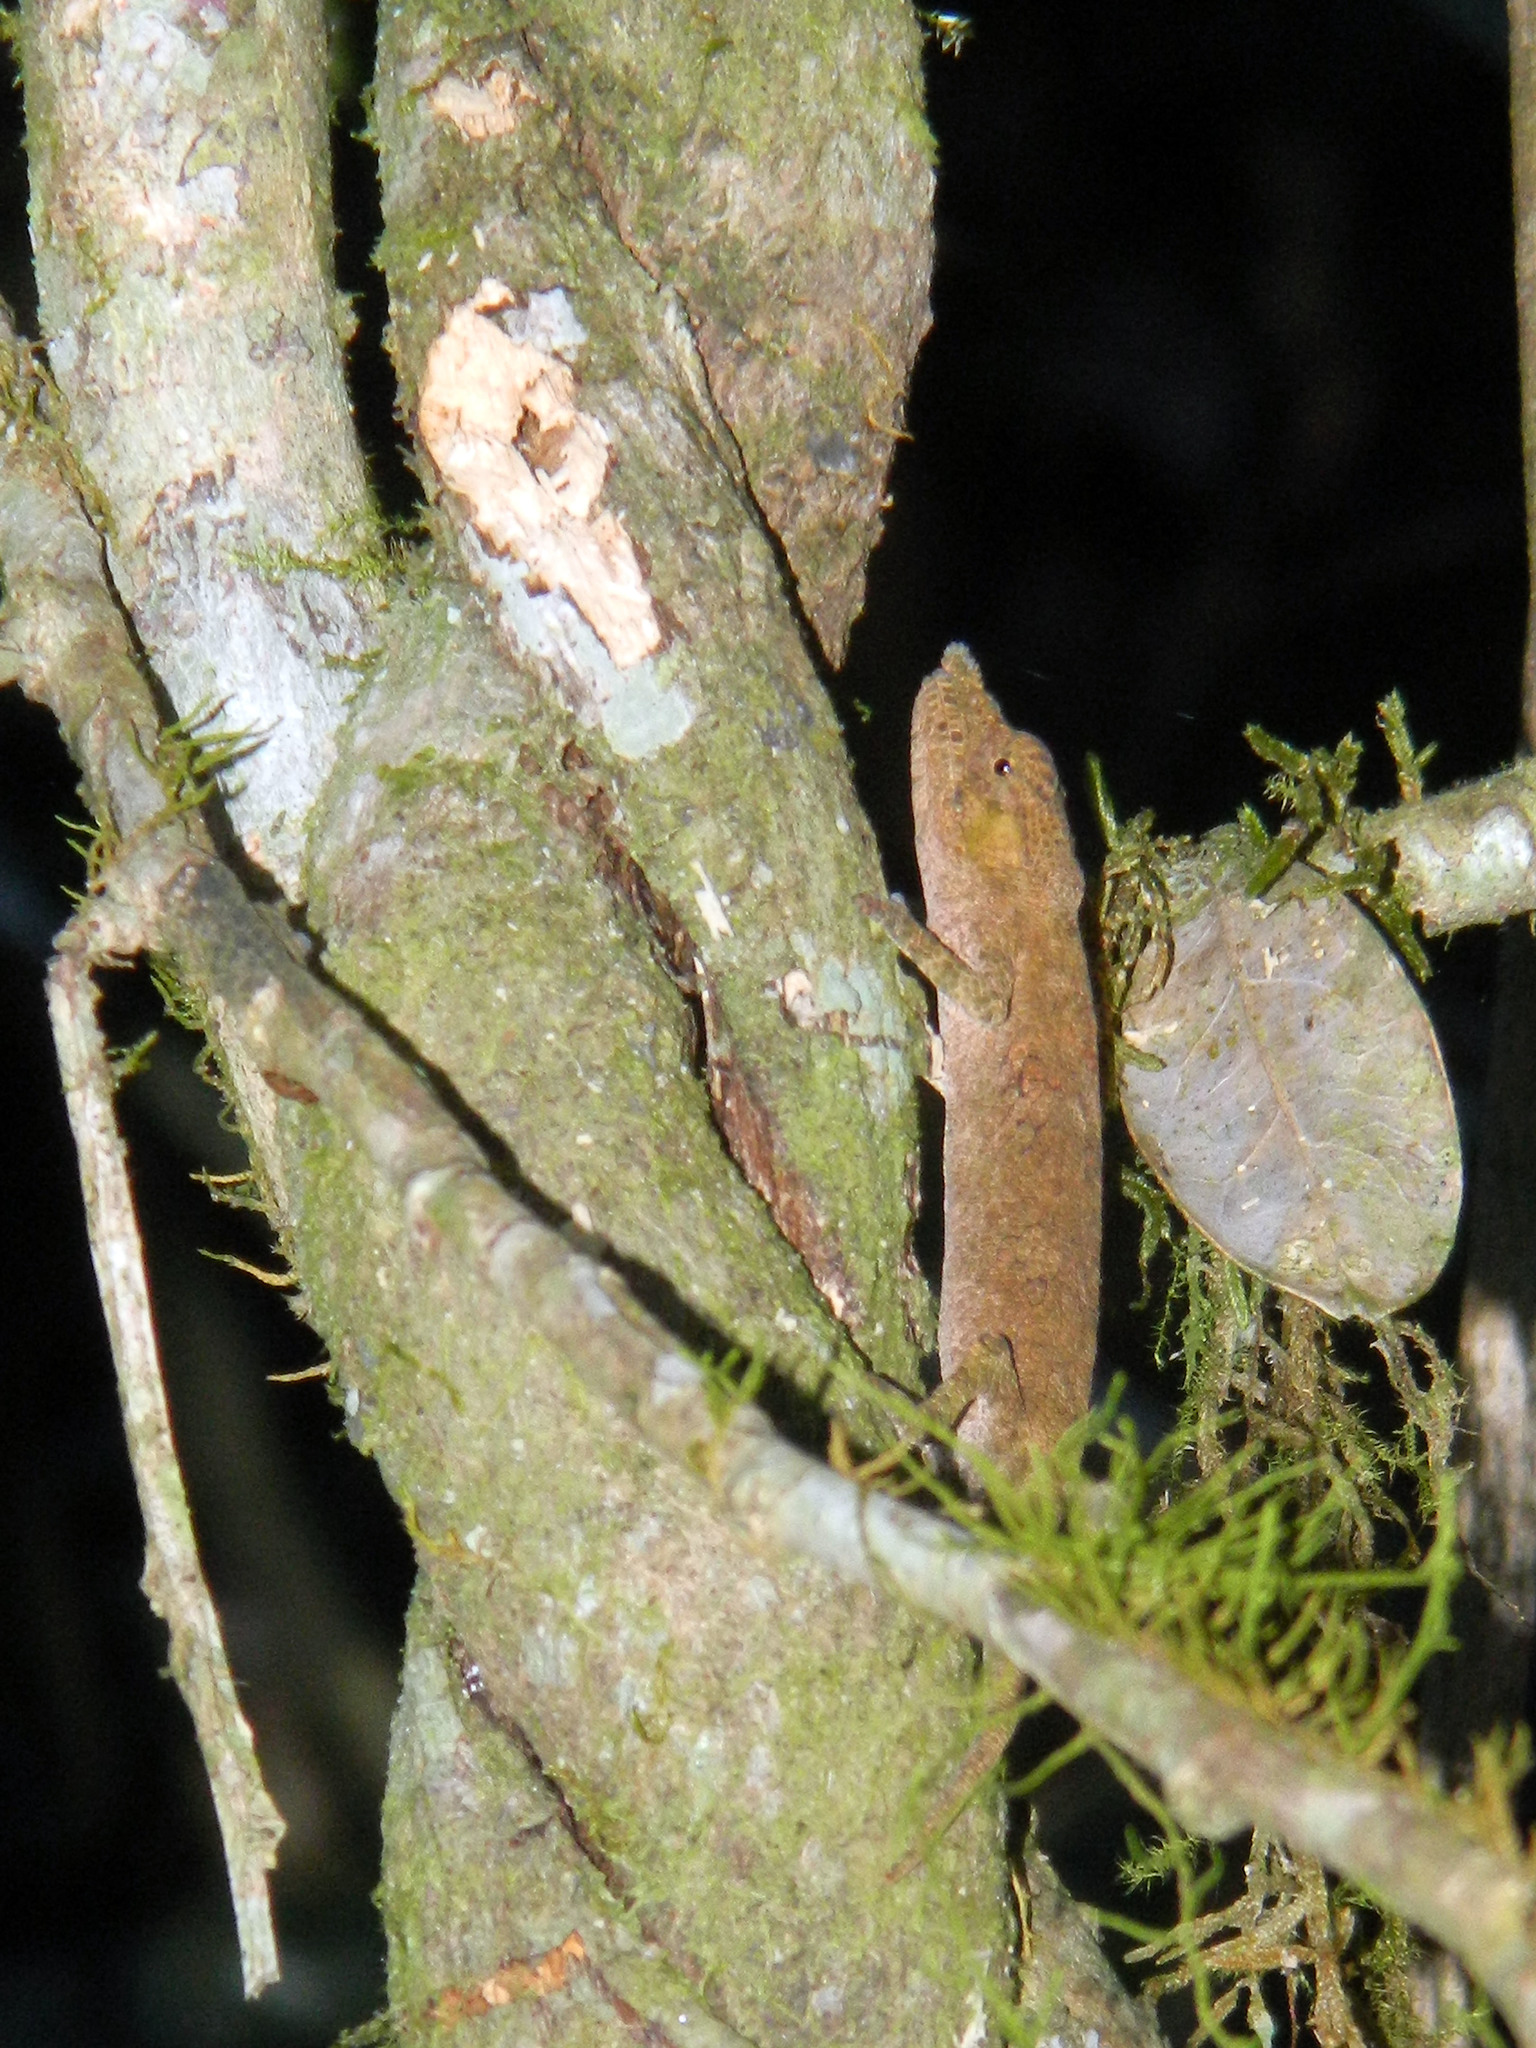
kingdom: Animalia
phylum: Chordata
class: Squamata
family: Chamaeleonidae
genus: Calumma
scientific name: Calumma tjiasmantoi
